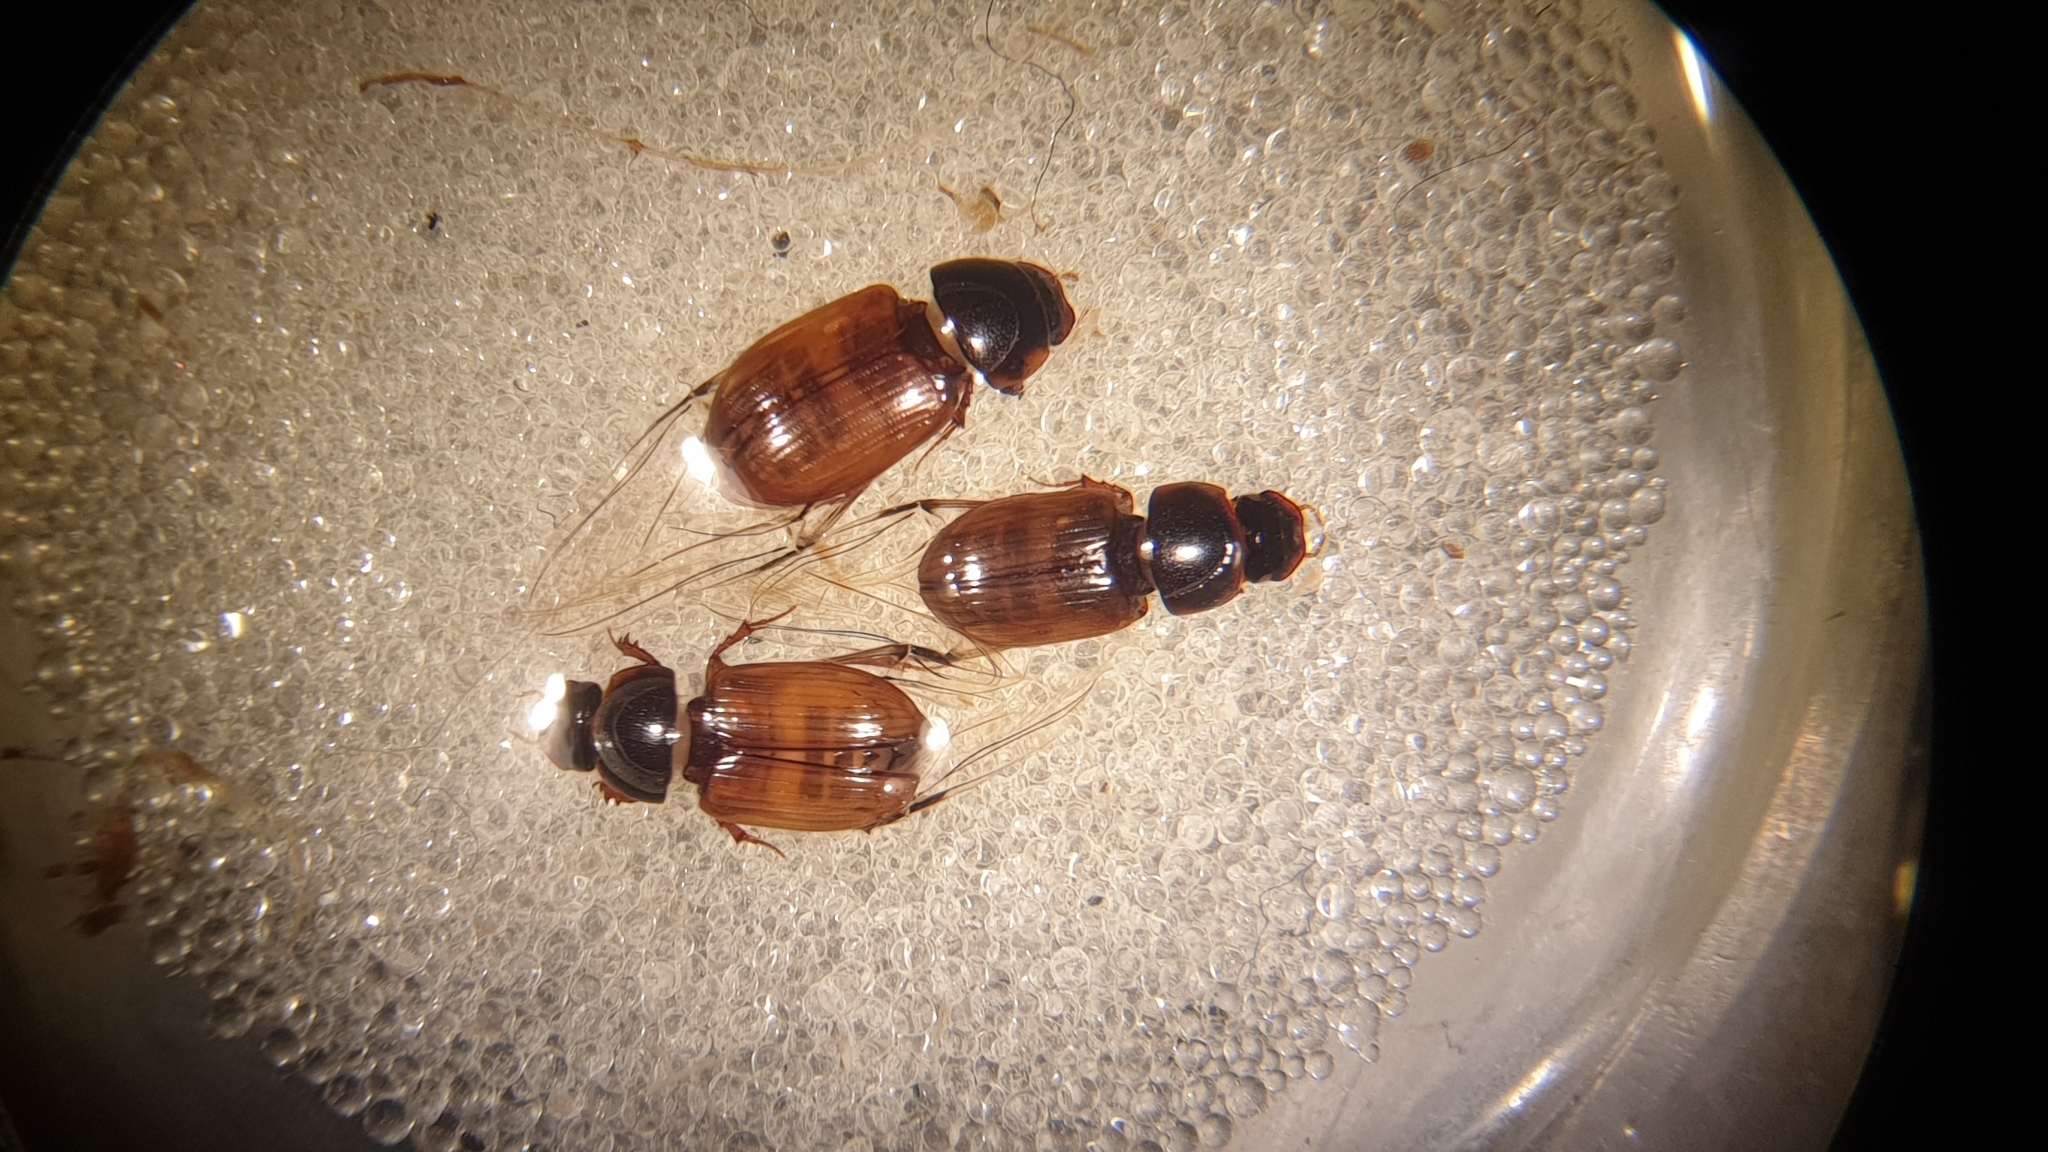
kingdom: Animalia
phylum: Arthropoda
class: Insecta
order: Coleoptera
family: Scarabaeidae
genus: Bodiloides
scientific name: Bodiloides ictericus
